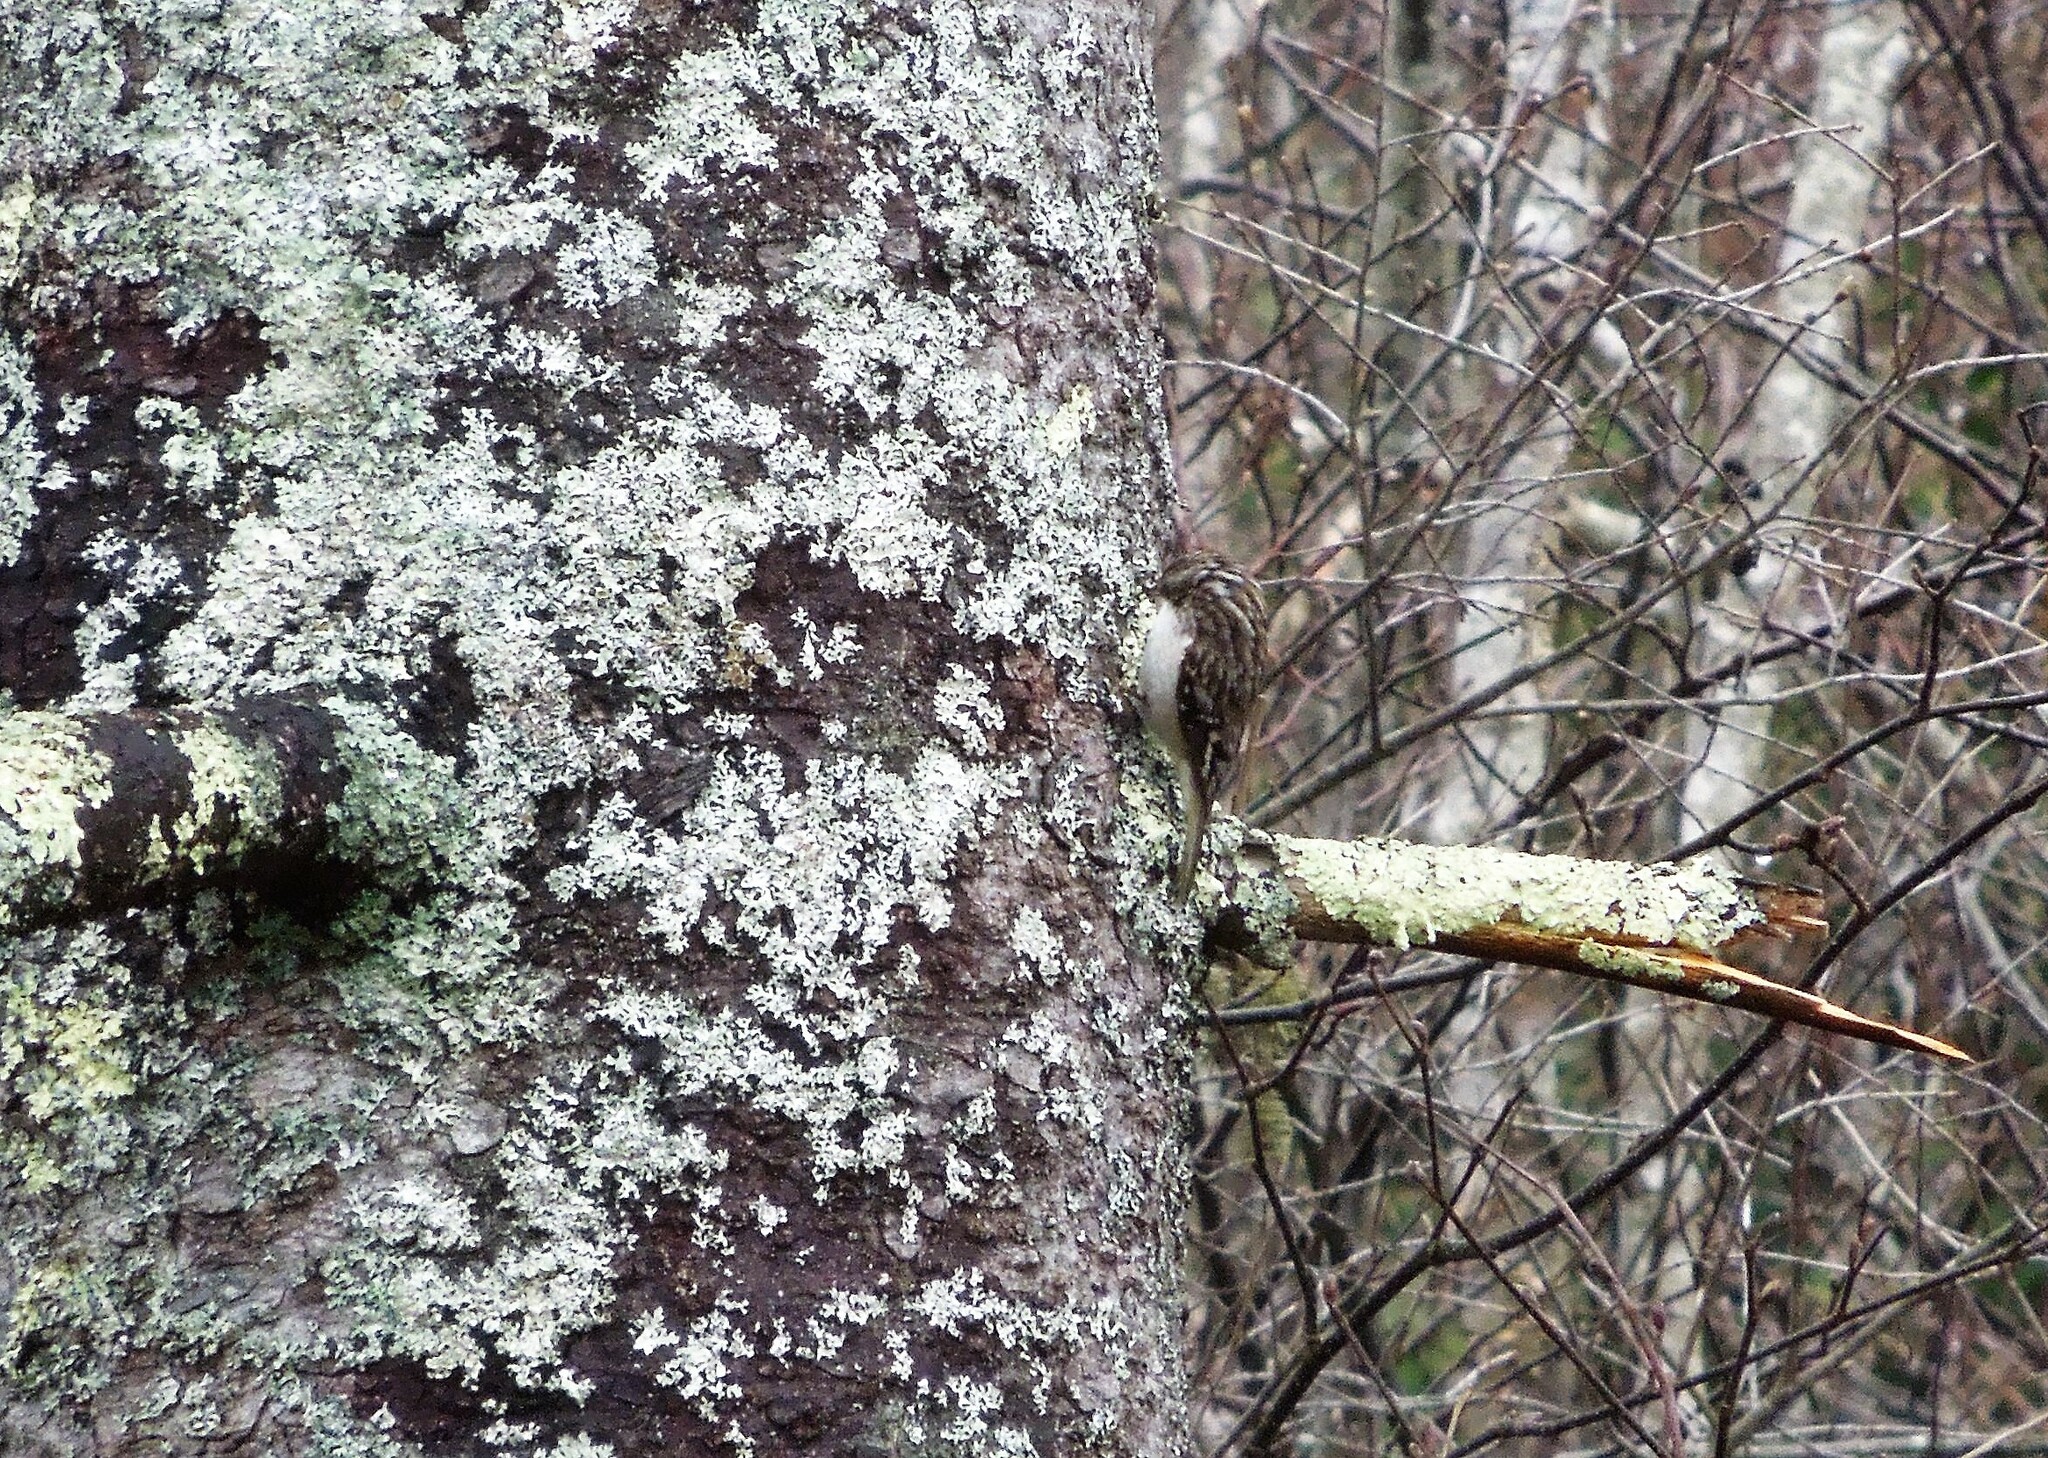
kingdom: Animalia
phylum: Chordata
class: Aves
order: Passeriformes
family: Certhiidae
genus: Certhia
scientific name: Certhia americana
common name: Brown creeper
